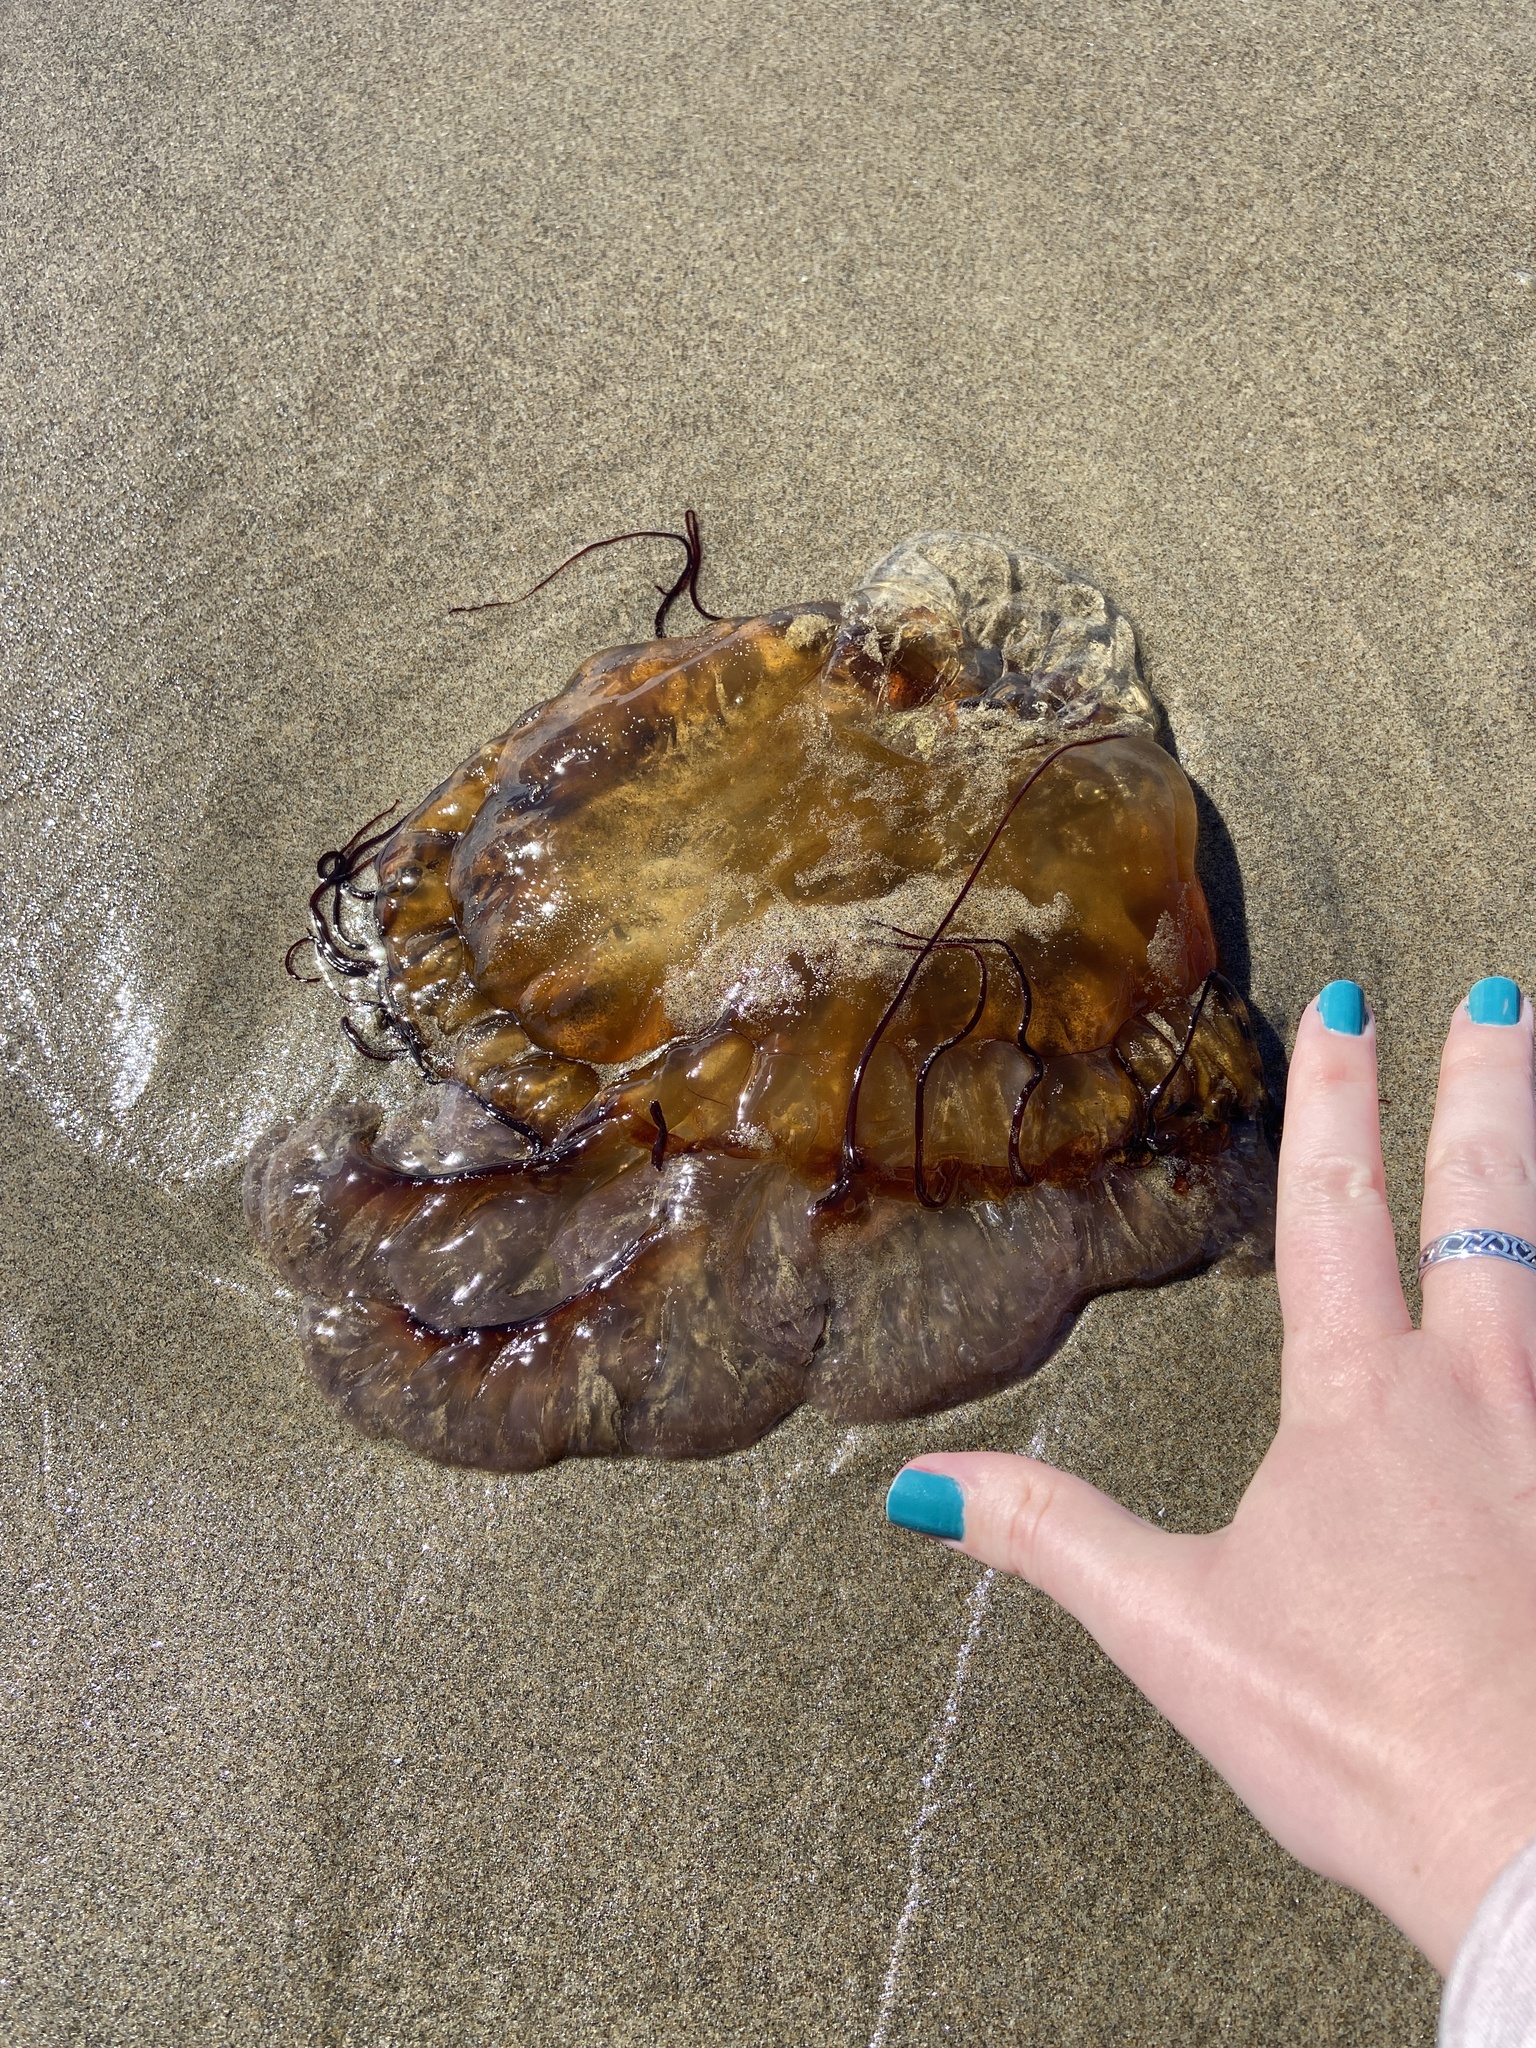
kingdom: Animalia
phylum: Cnidaria
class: Scyphozoa
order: Semaeostomeae
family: Pelagiidae
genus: Chrysaora
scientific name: Chrysaora fuscescens
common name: Sea nettle
